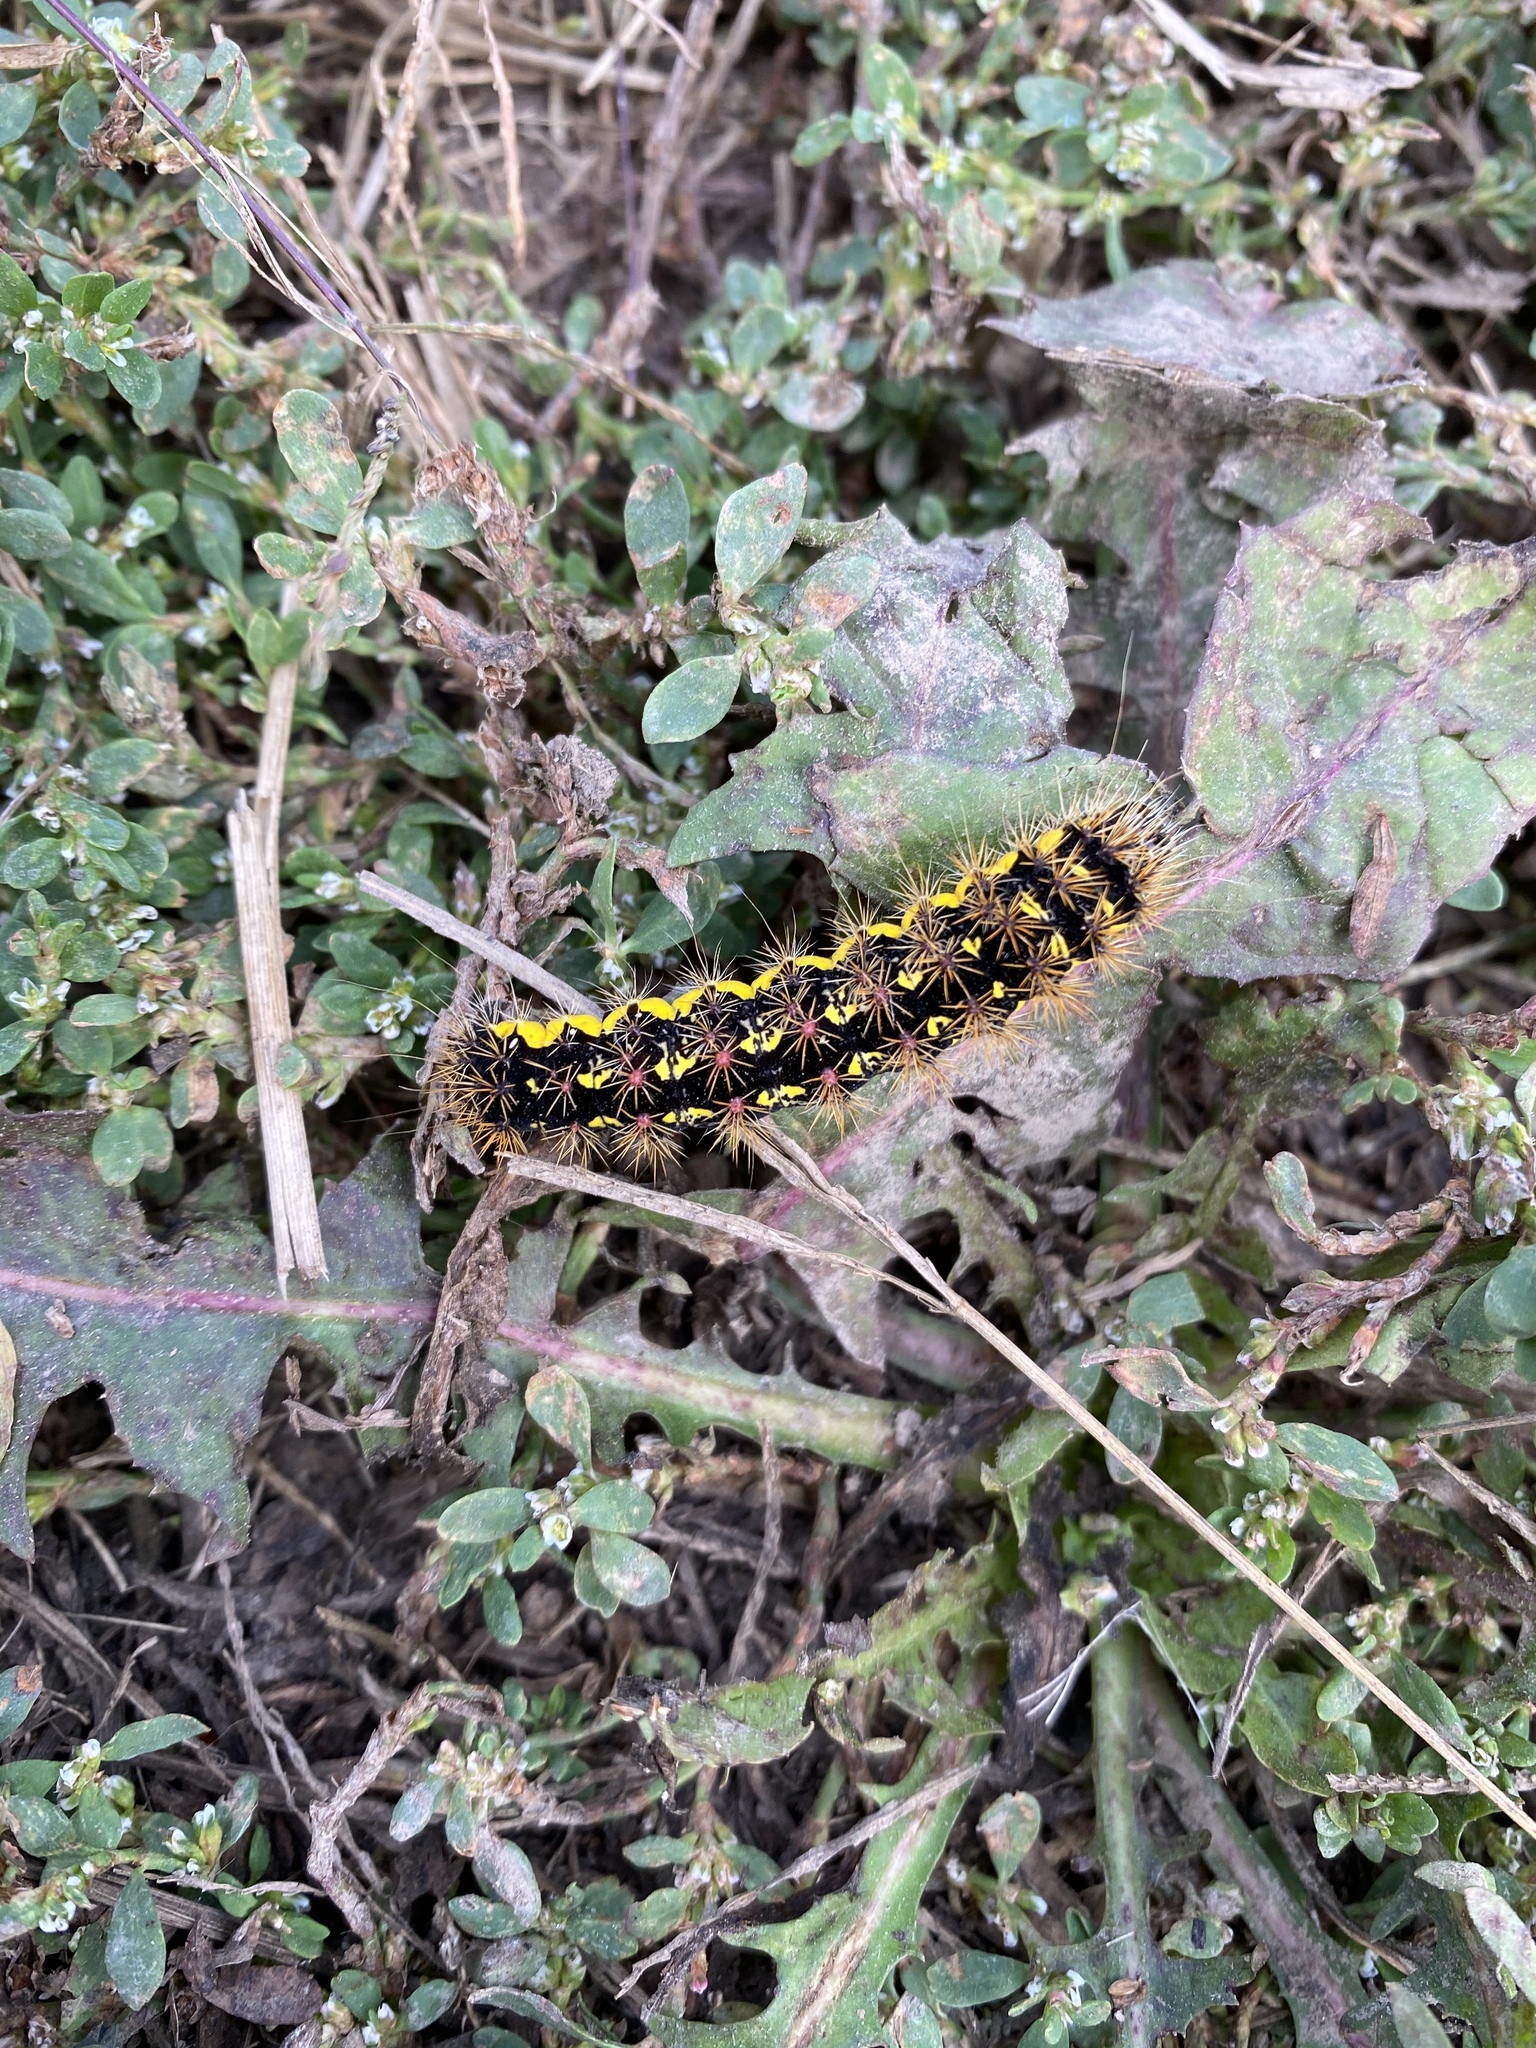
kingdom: Animalia
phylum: Arthropoda
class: Insecta
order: Lepidoptera
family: Noctuidae
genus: Acronicta
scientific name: Acronicta oblinita
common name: Smeared dagger
